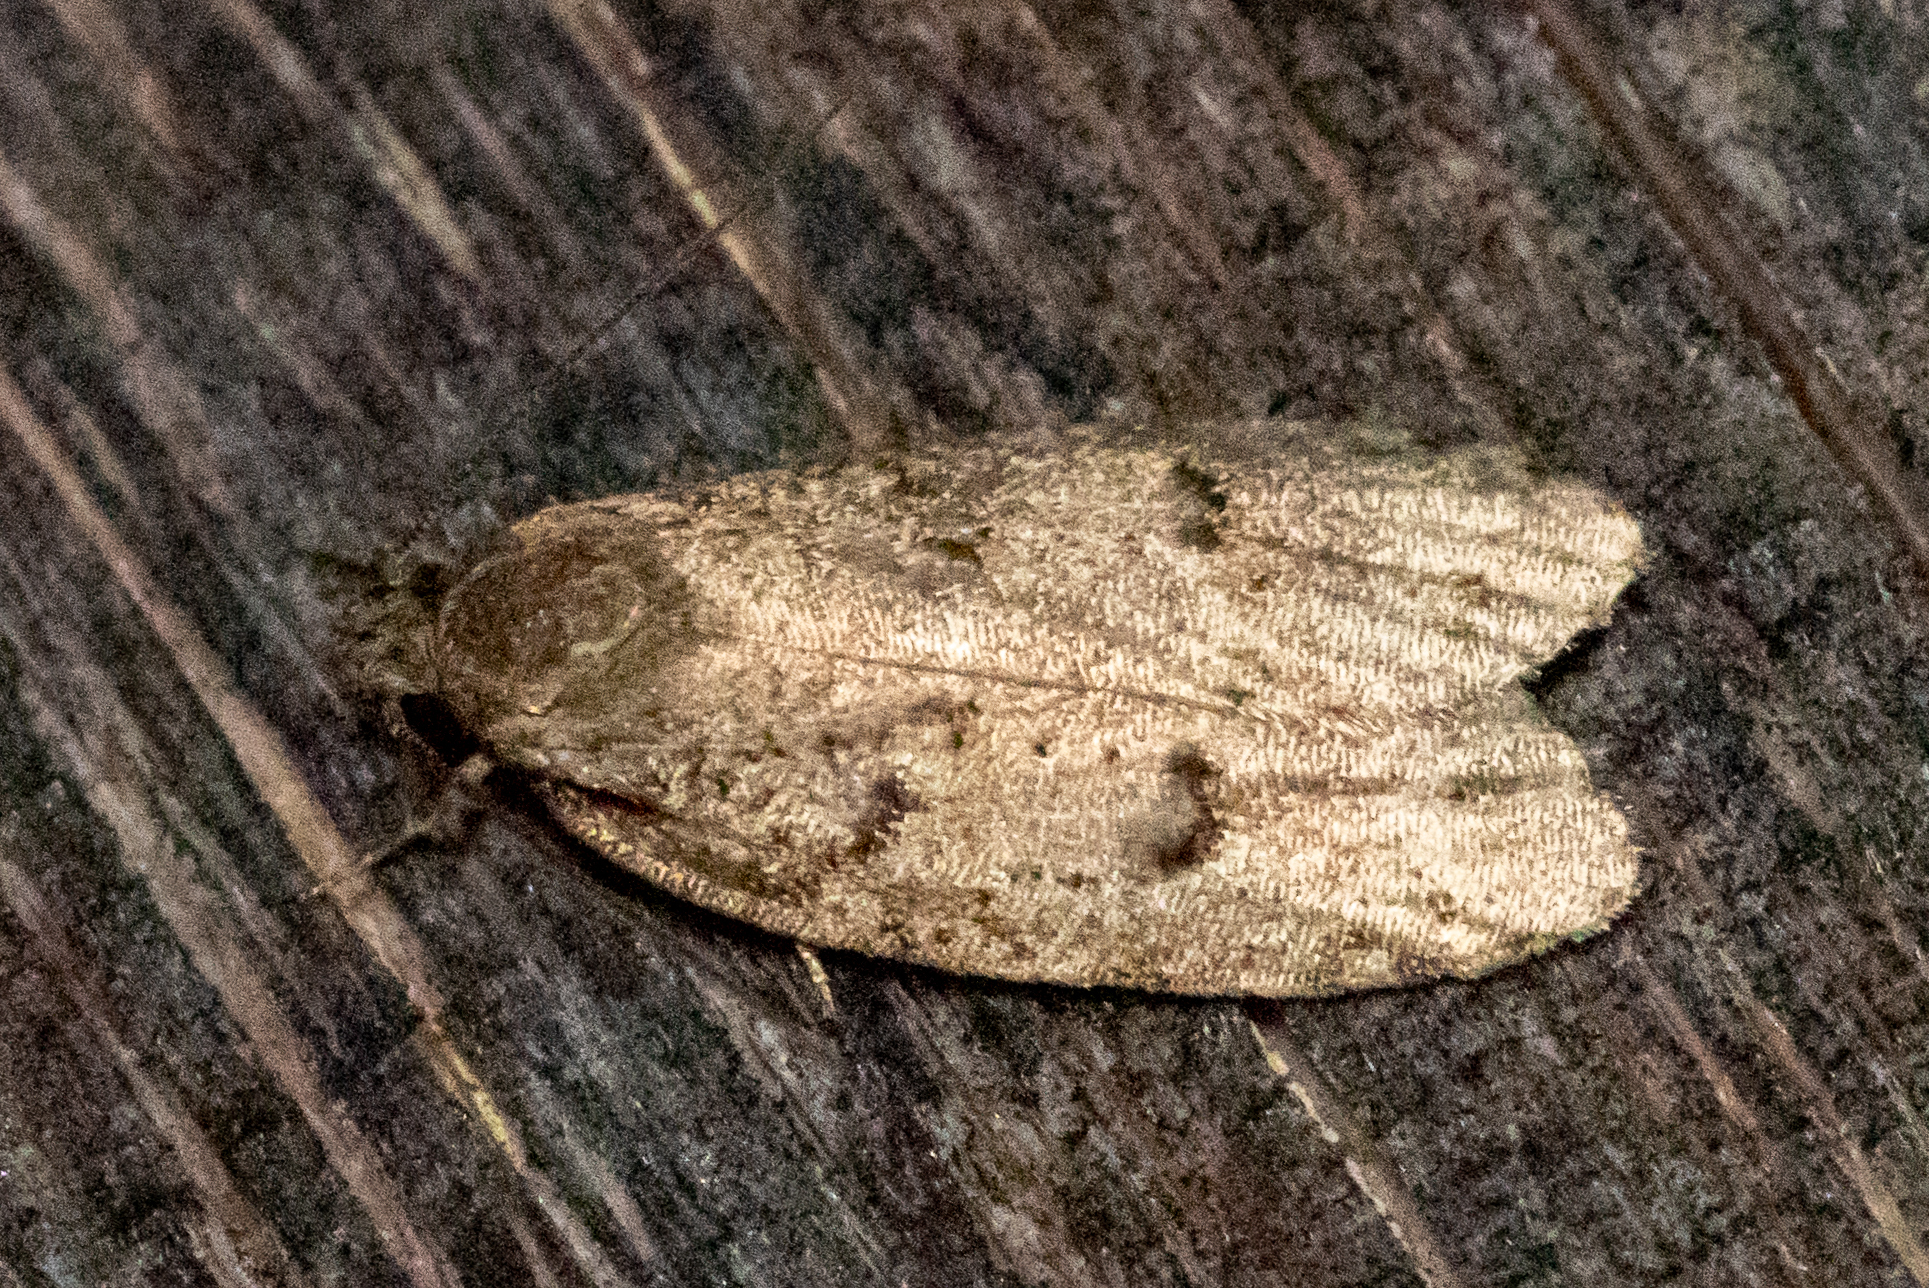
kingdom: Animalia
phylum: Arthropoda
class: Insecta
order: Lepidoptera
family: Depressariidae
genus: Bibarrambla
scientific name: Bibarrambla allenella
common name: Bog bibarrambla moth
